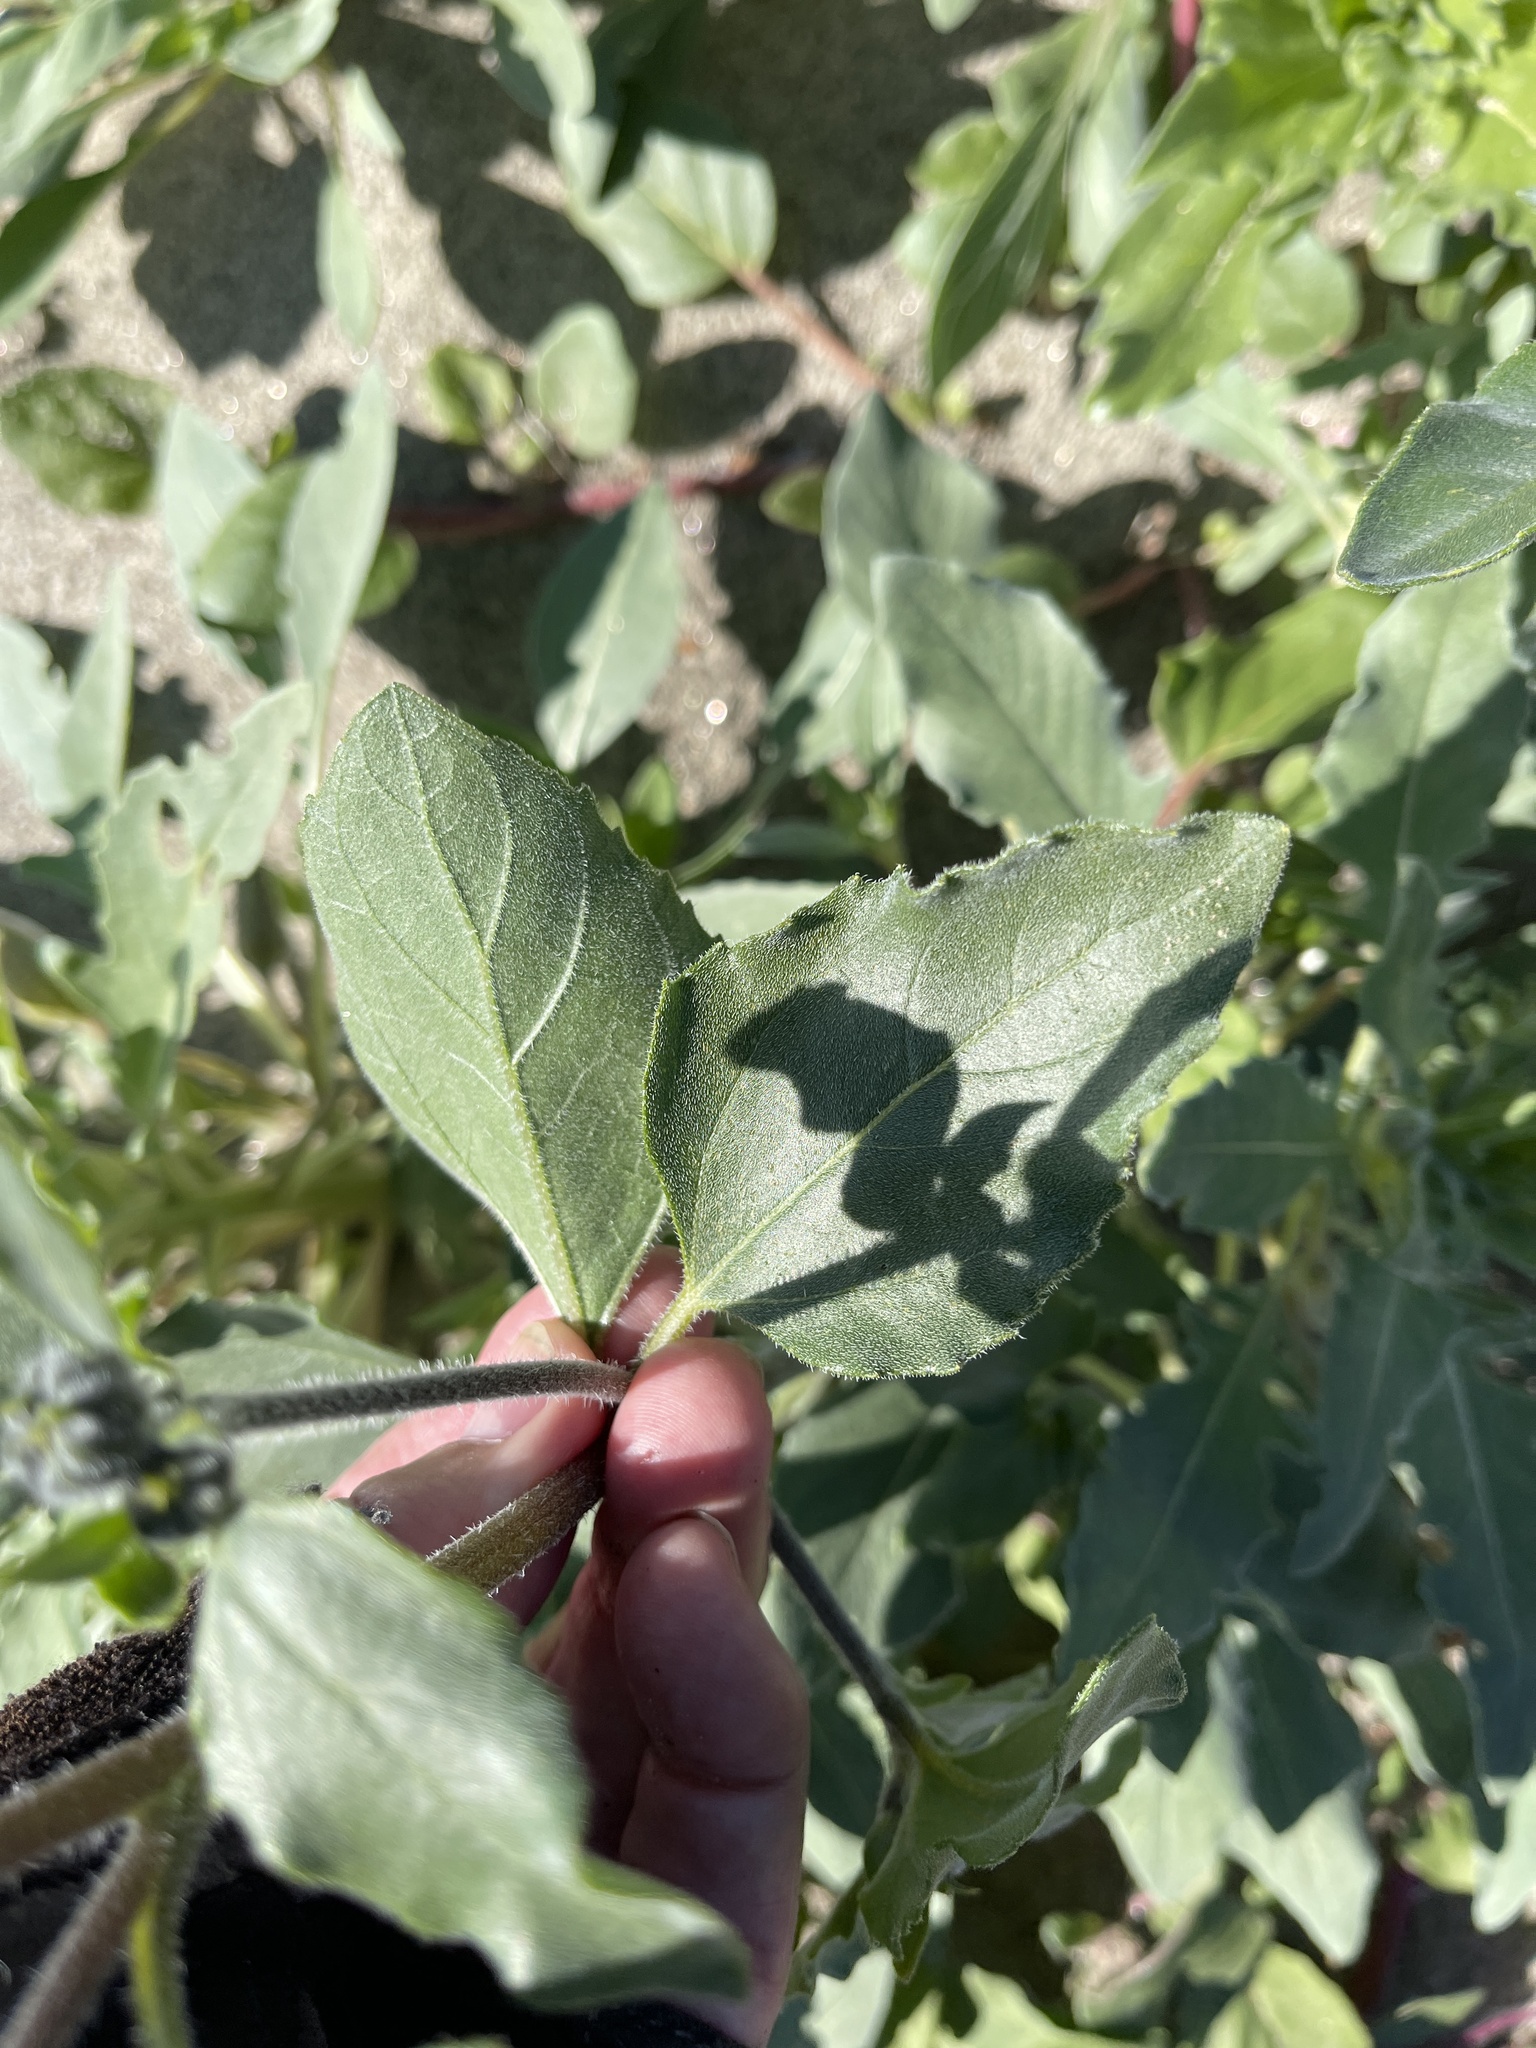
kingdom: Plantae
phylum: Tracheophyta
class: Magnoliopsida
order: Asterales
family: Asteraceae
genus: Helianthus
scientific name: Helianthus petiolaris
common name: Lesser sunflower
